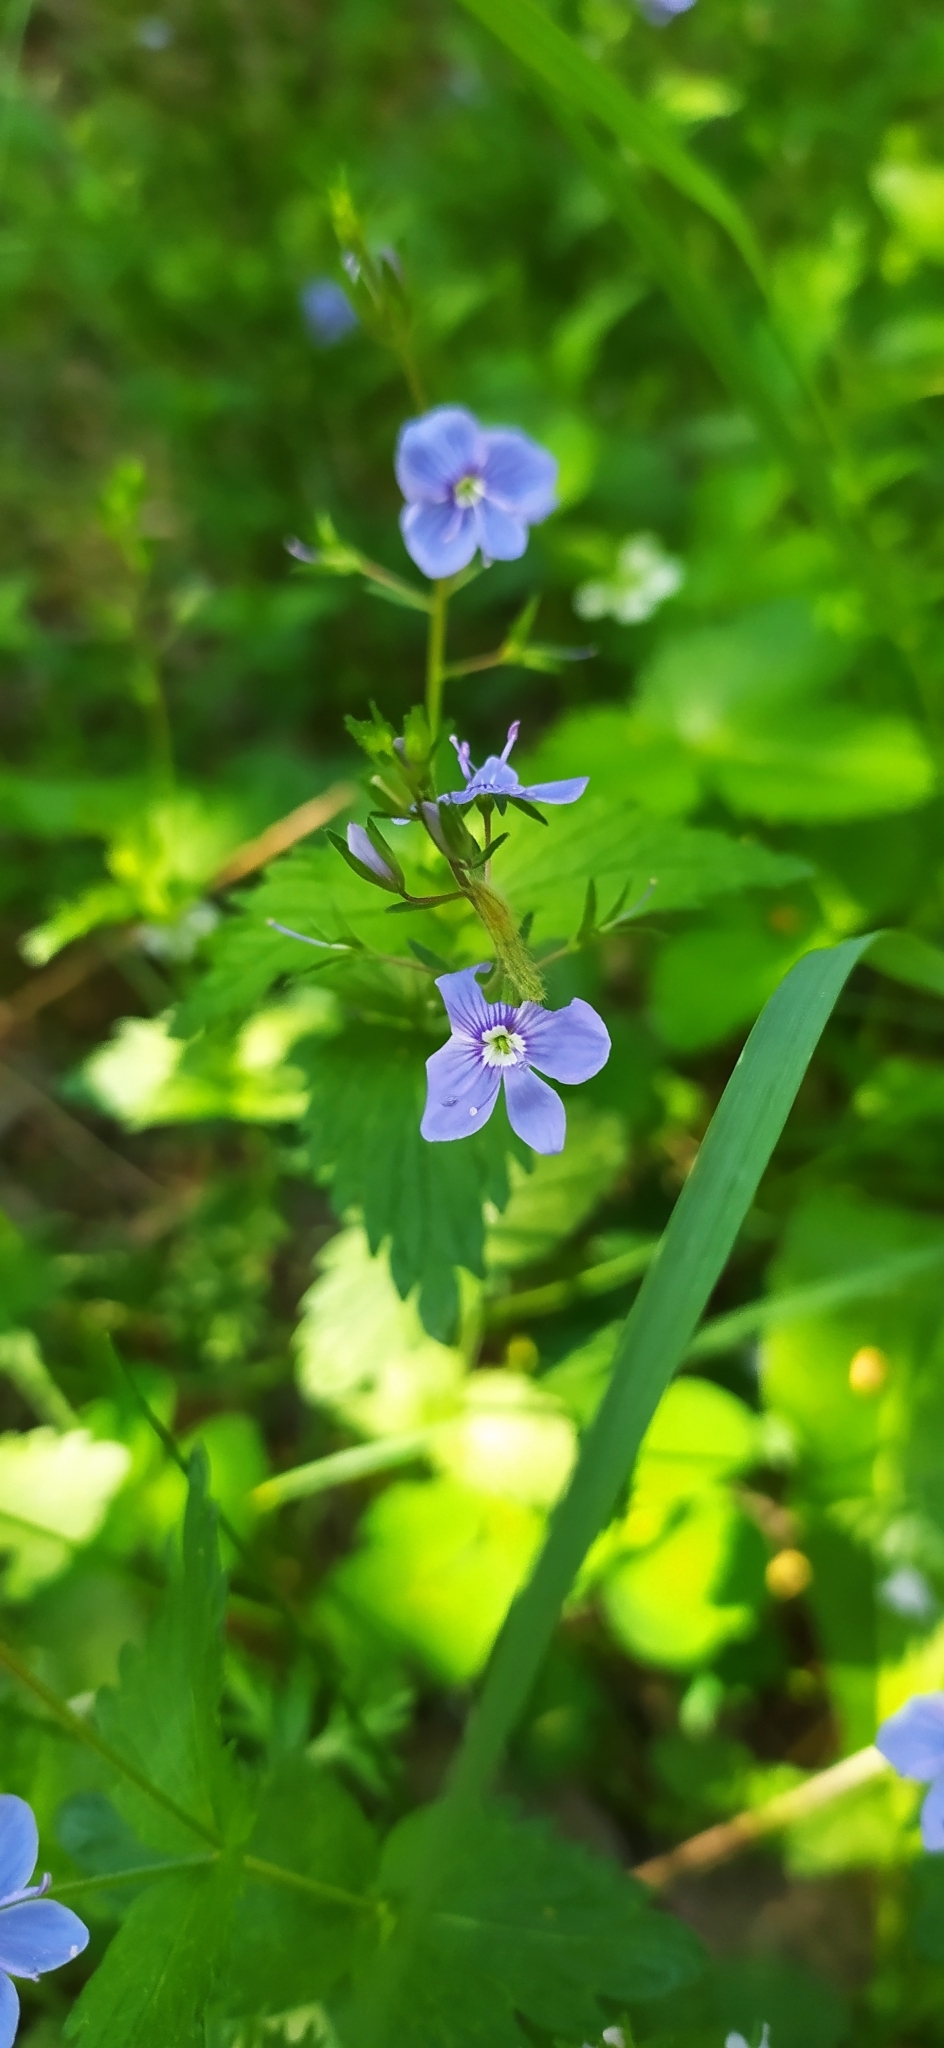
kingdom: Plantae
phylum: Tracheophyta
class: Magnoliopsida
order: Lamiales
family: Plantaginaceae
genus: Veronica
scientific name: Veronica chamaedrys
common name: Germander speedwell
